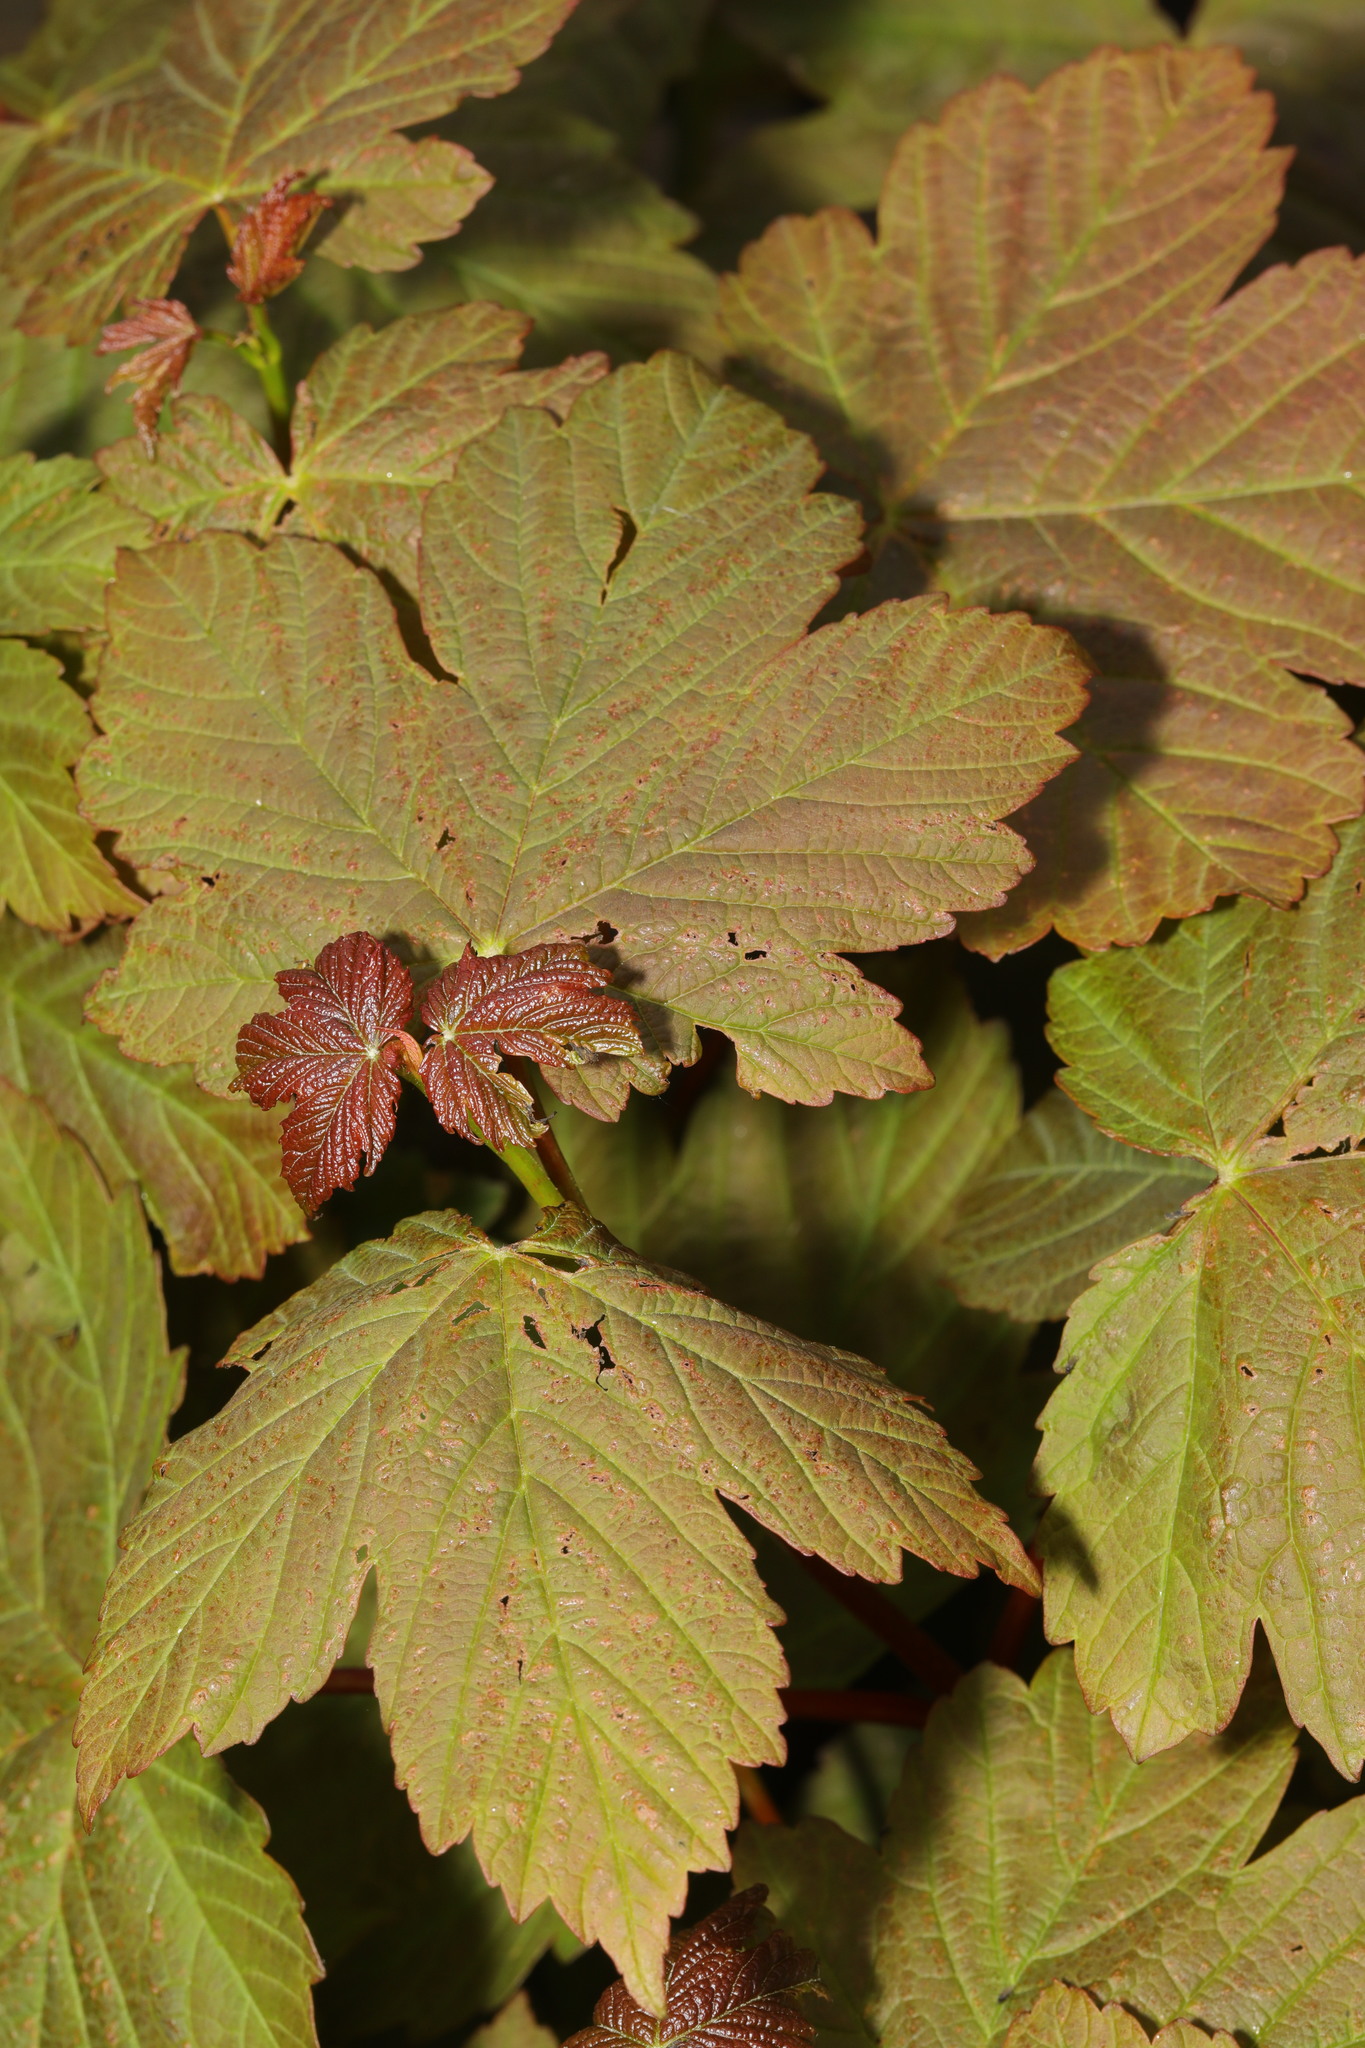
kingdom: Plantae
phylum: Tracheophyta
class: Magnoliopsida
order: Sapindales
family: Sapindaceae
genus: Acer
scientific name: Acer pseudoplatanus
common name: Sycamore
